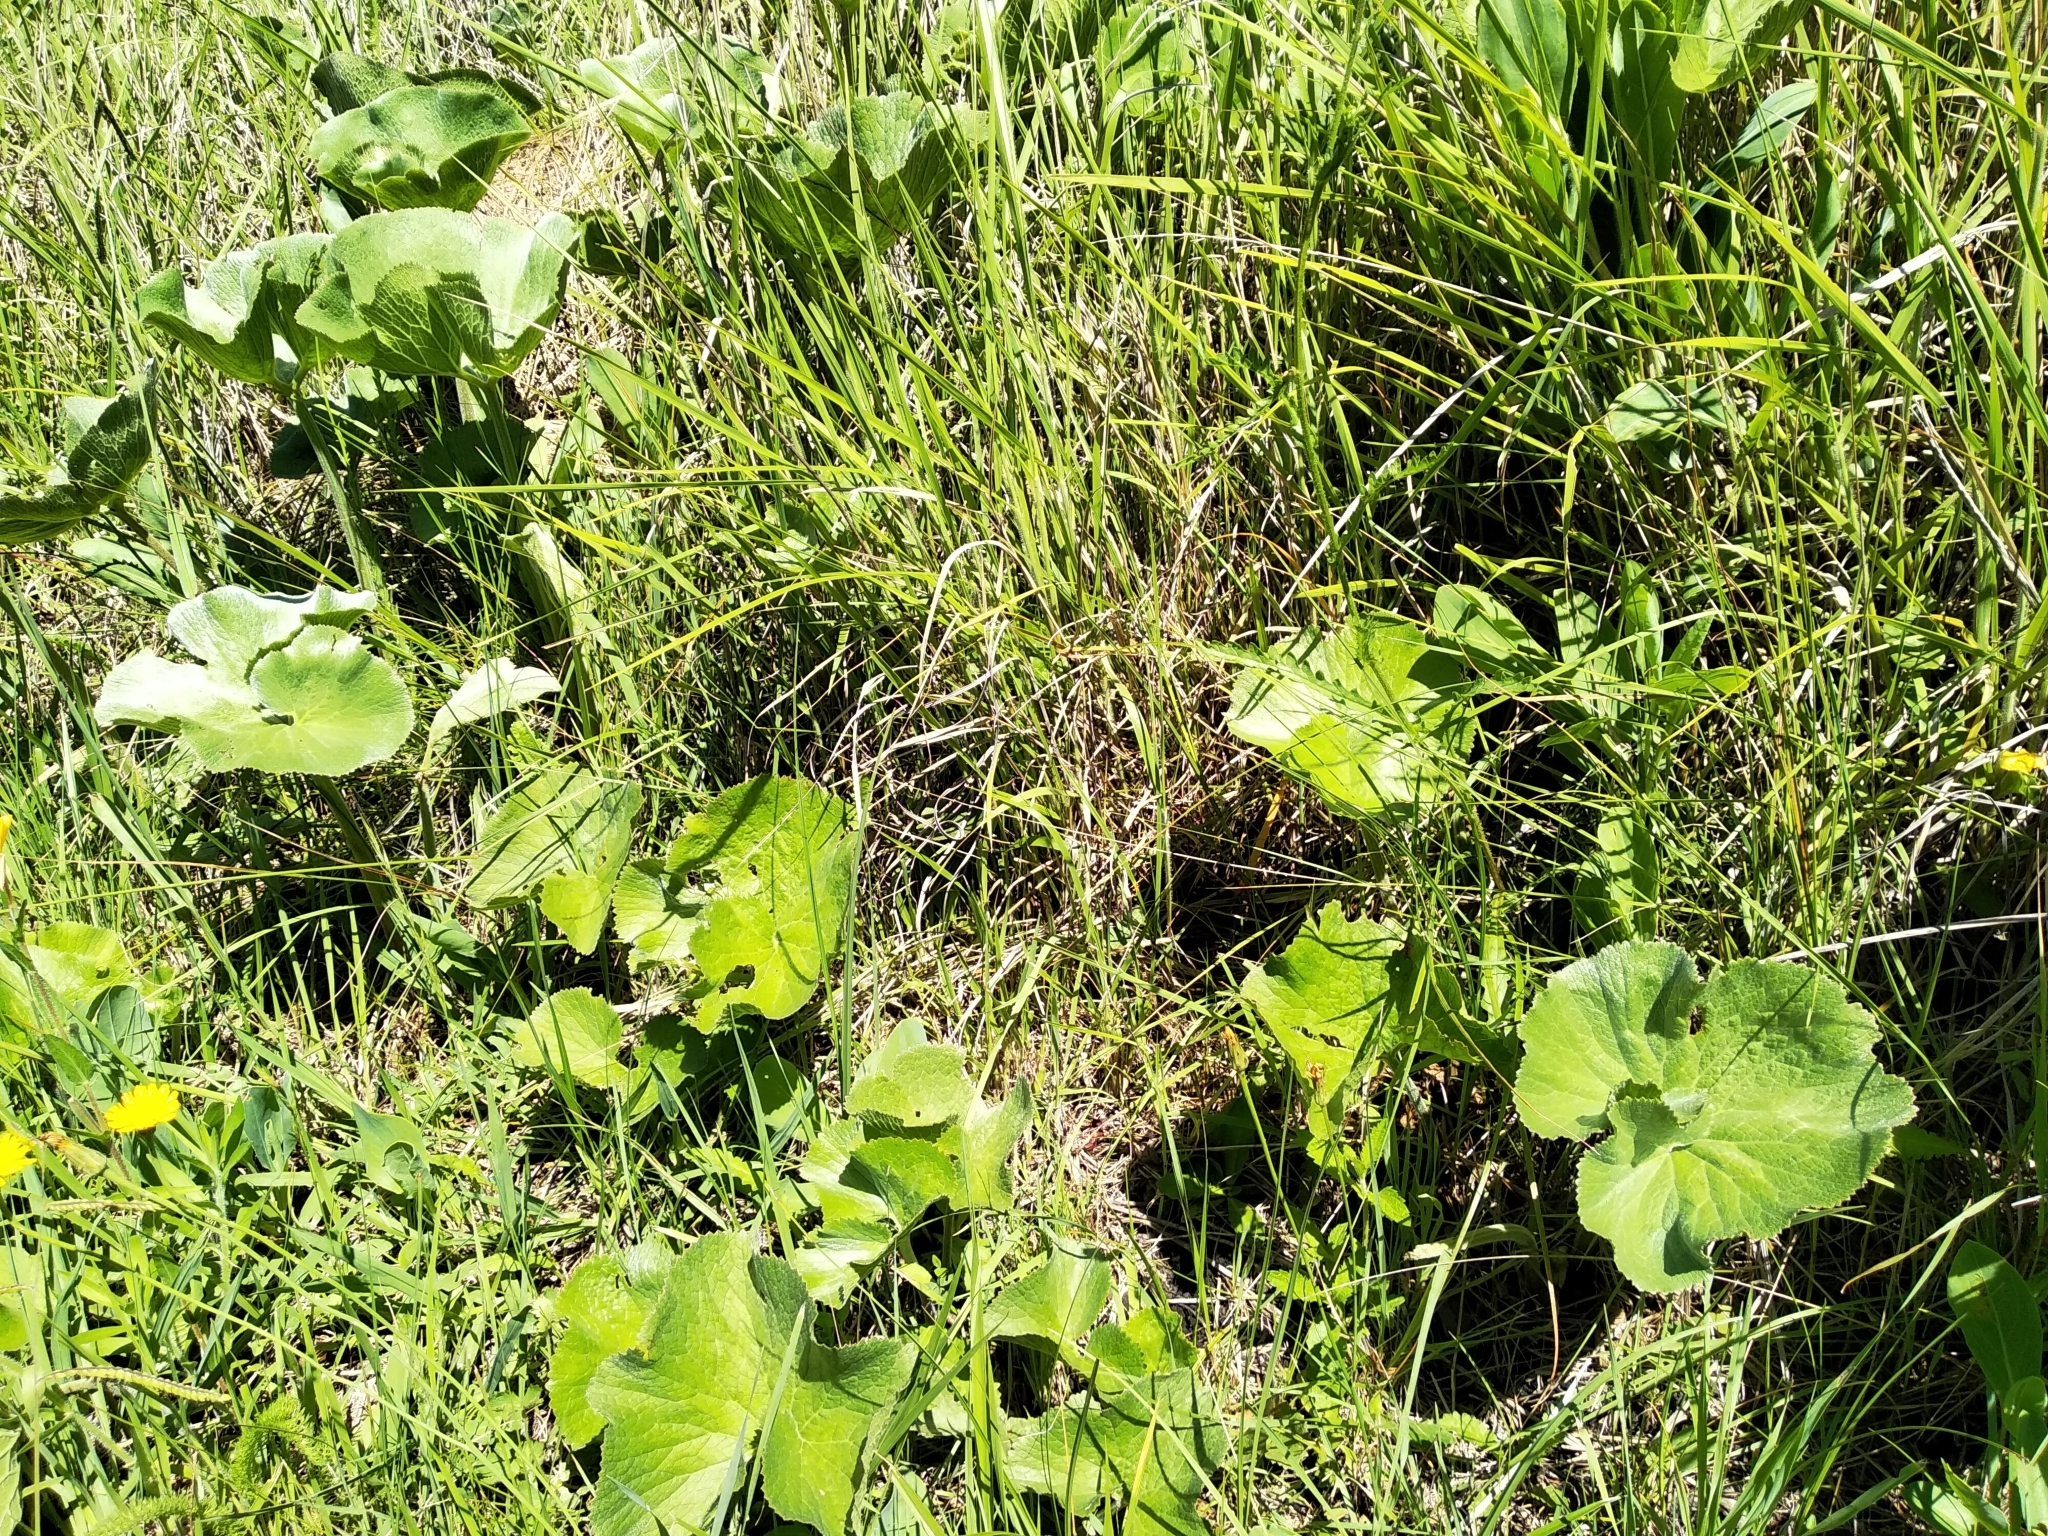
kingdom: Plantae
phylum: Tracheophyta
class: Magnoliopsida
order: Gunnerales
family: Gunneraceae
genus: Gunnera
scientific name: Gunnera perpensa
